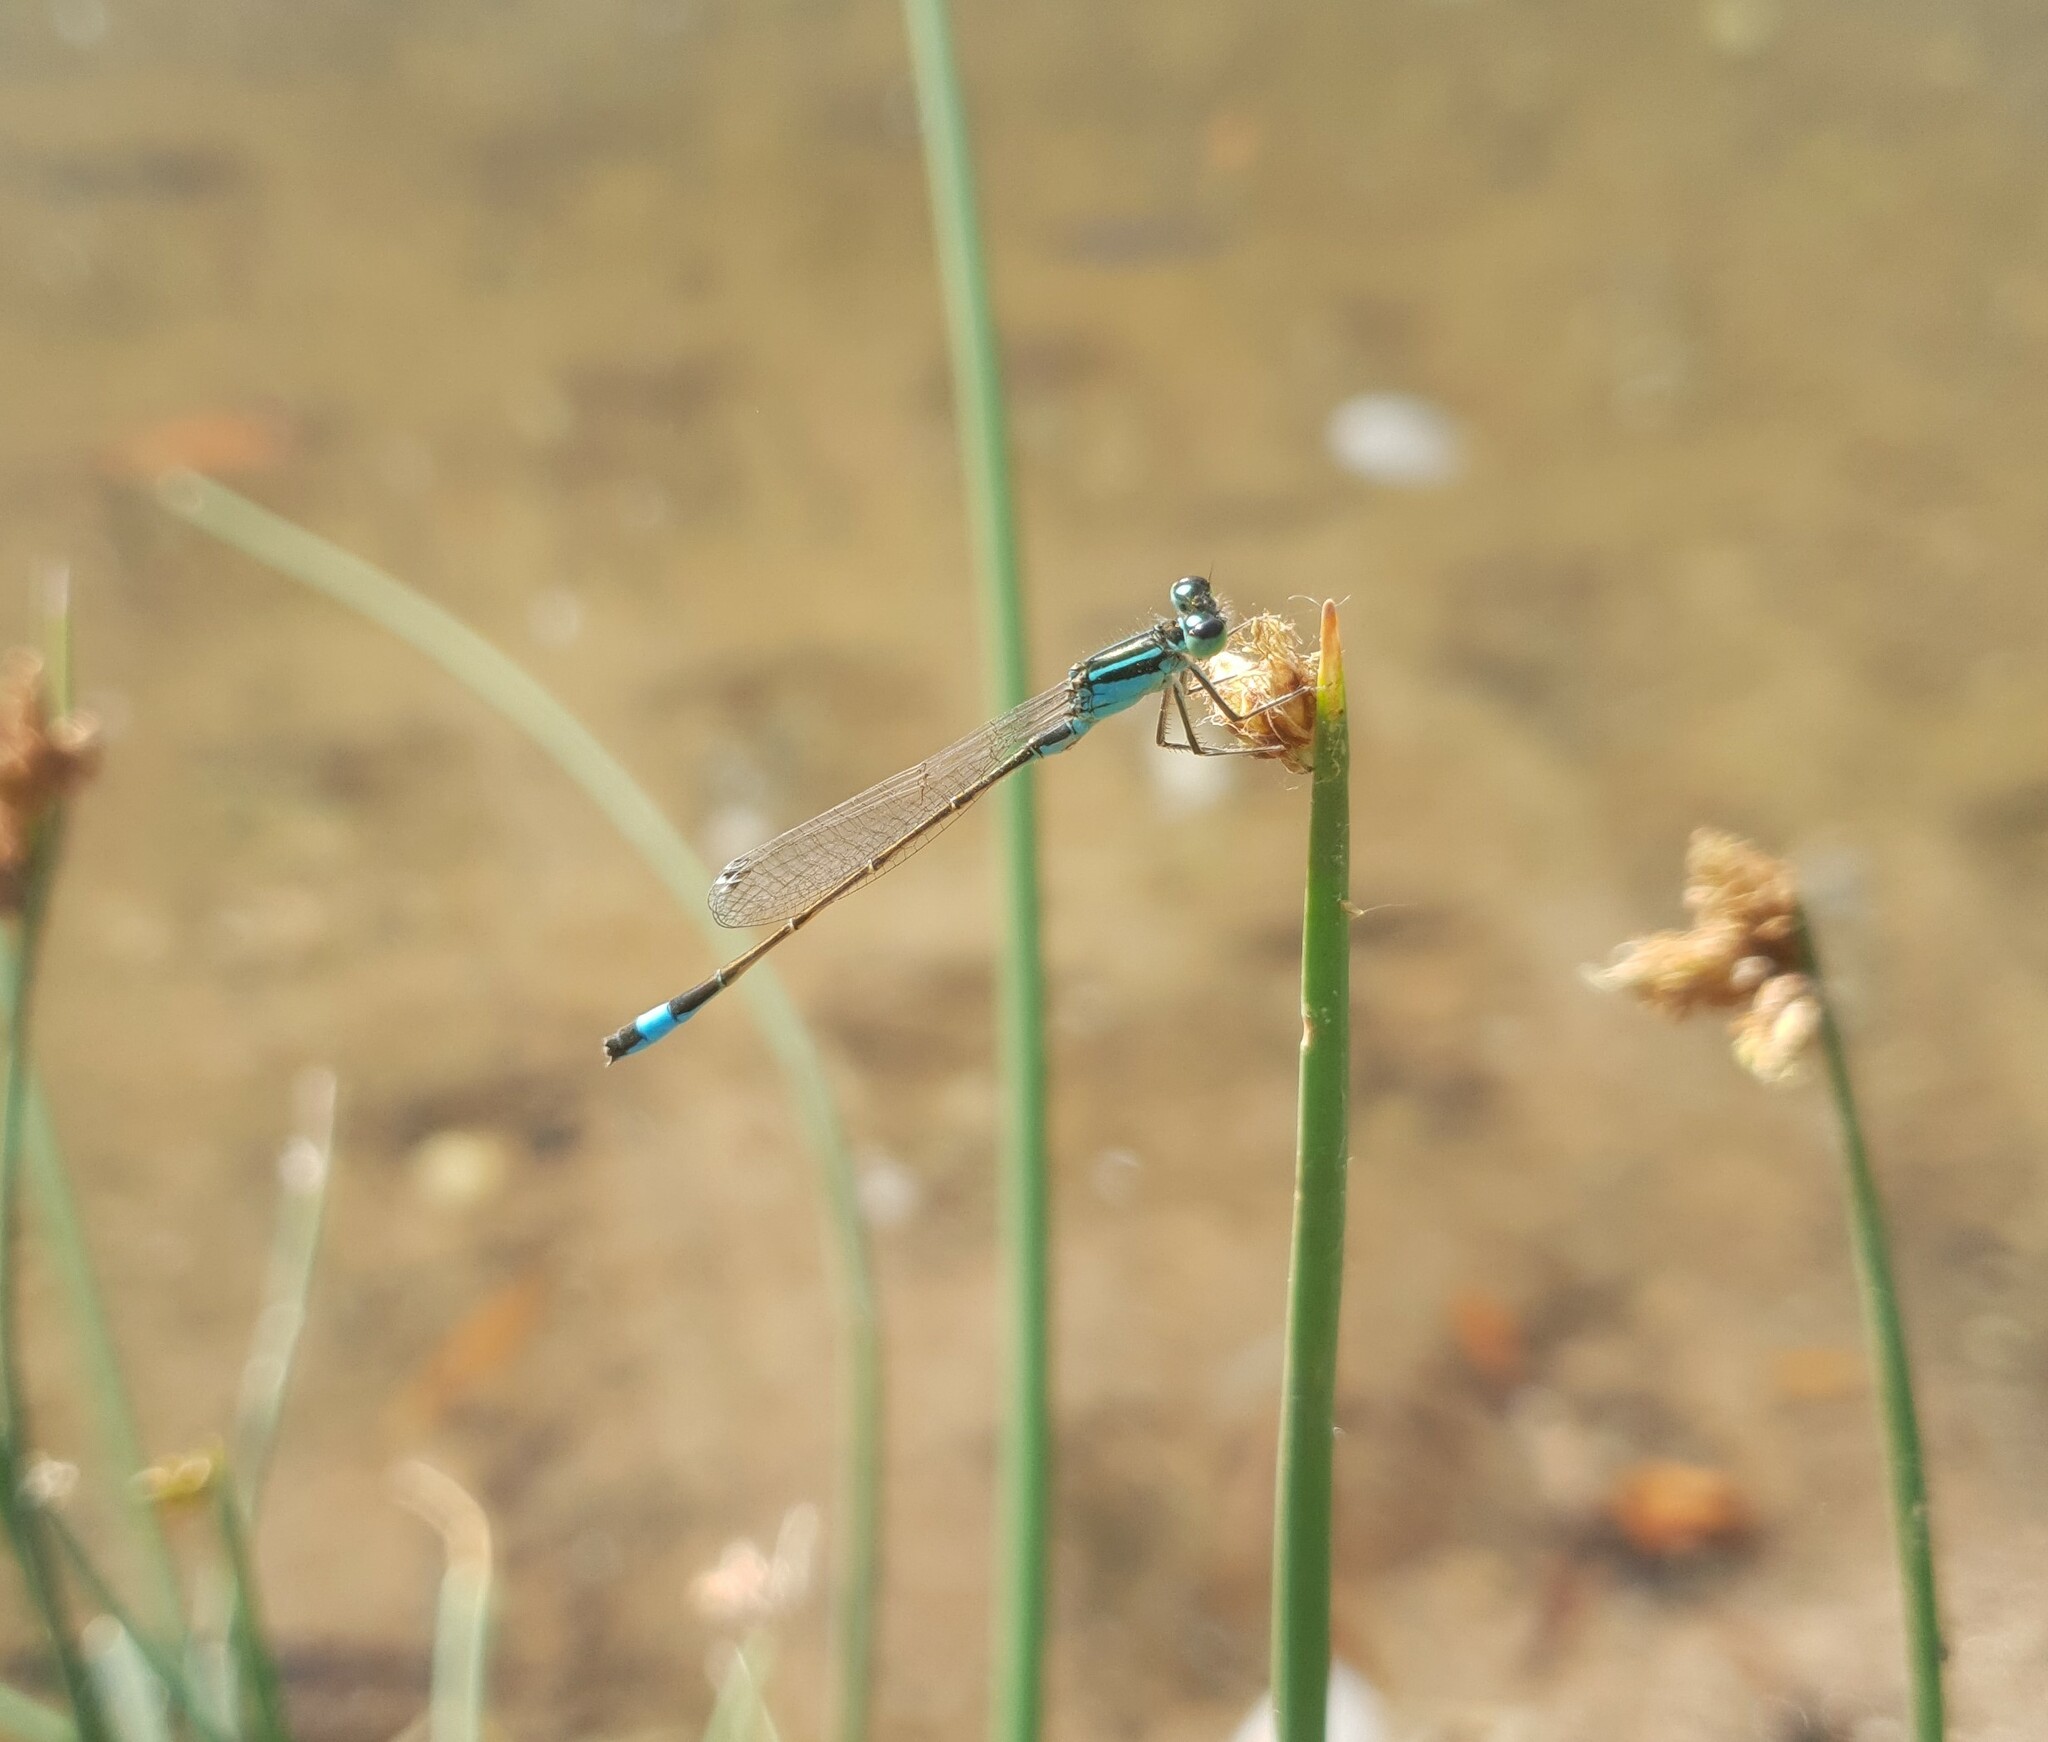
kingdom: Animalia
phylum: Arthropoda
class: Insecta
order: Odonata
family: Coenagrionidae
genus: Ischnura
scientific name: Ischnura elegans
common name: Blue-tailed damselfly
